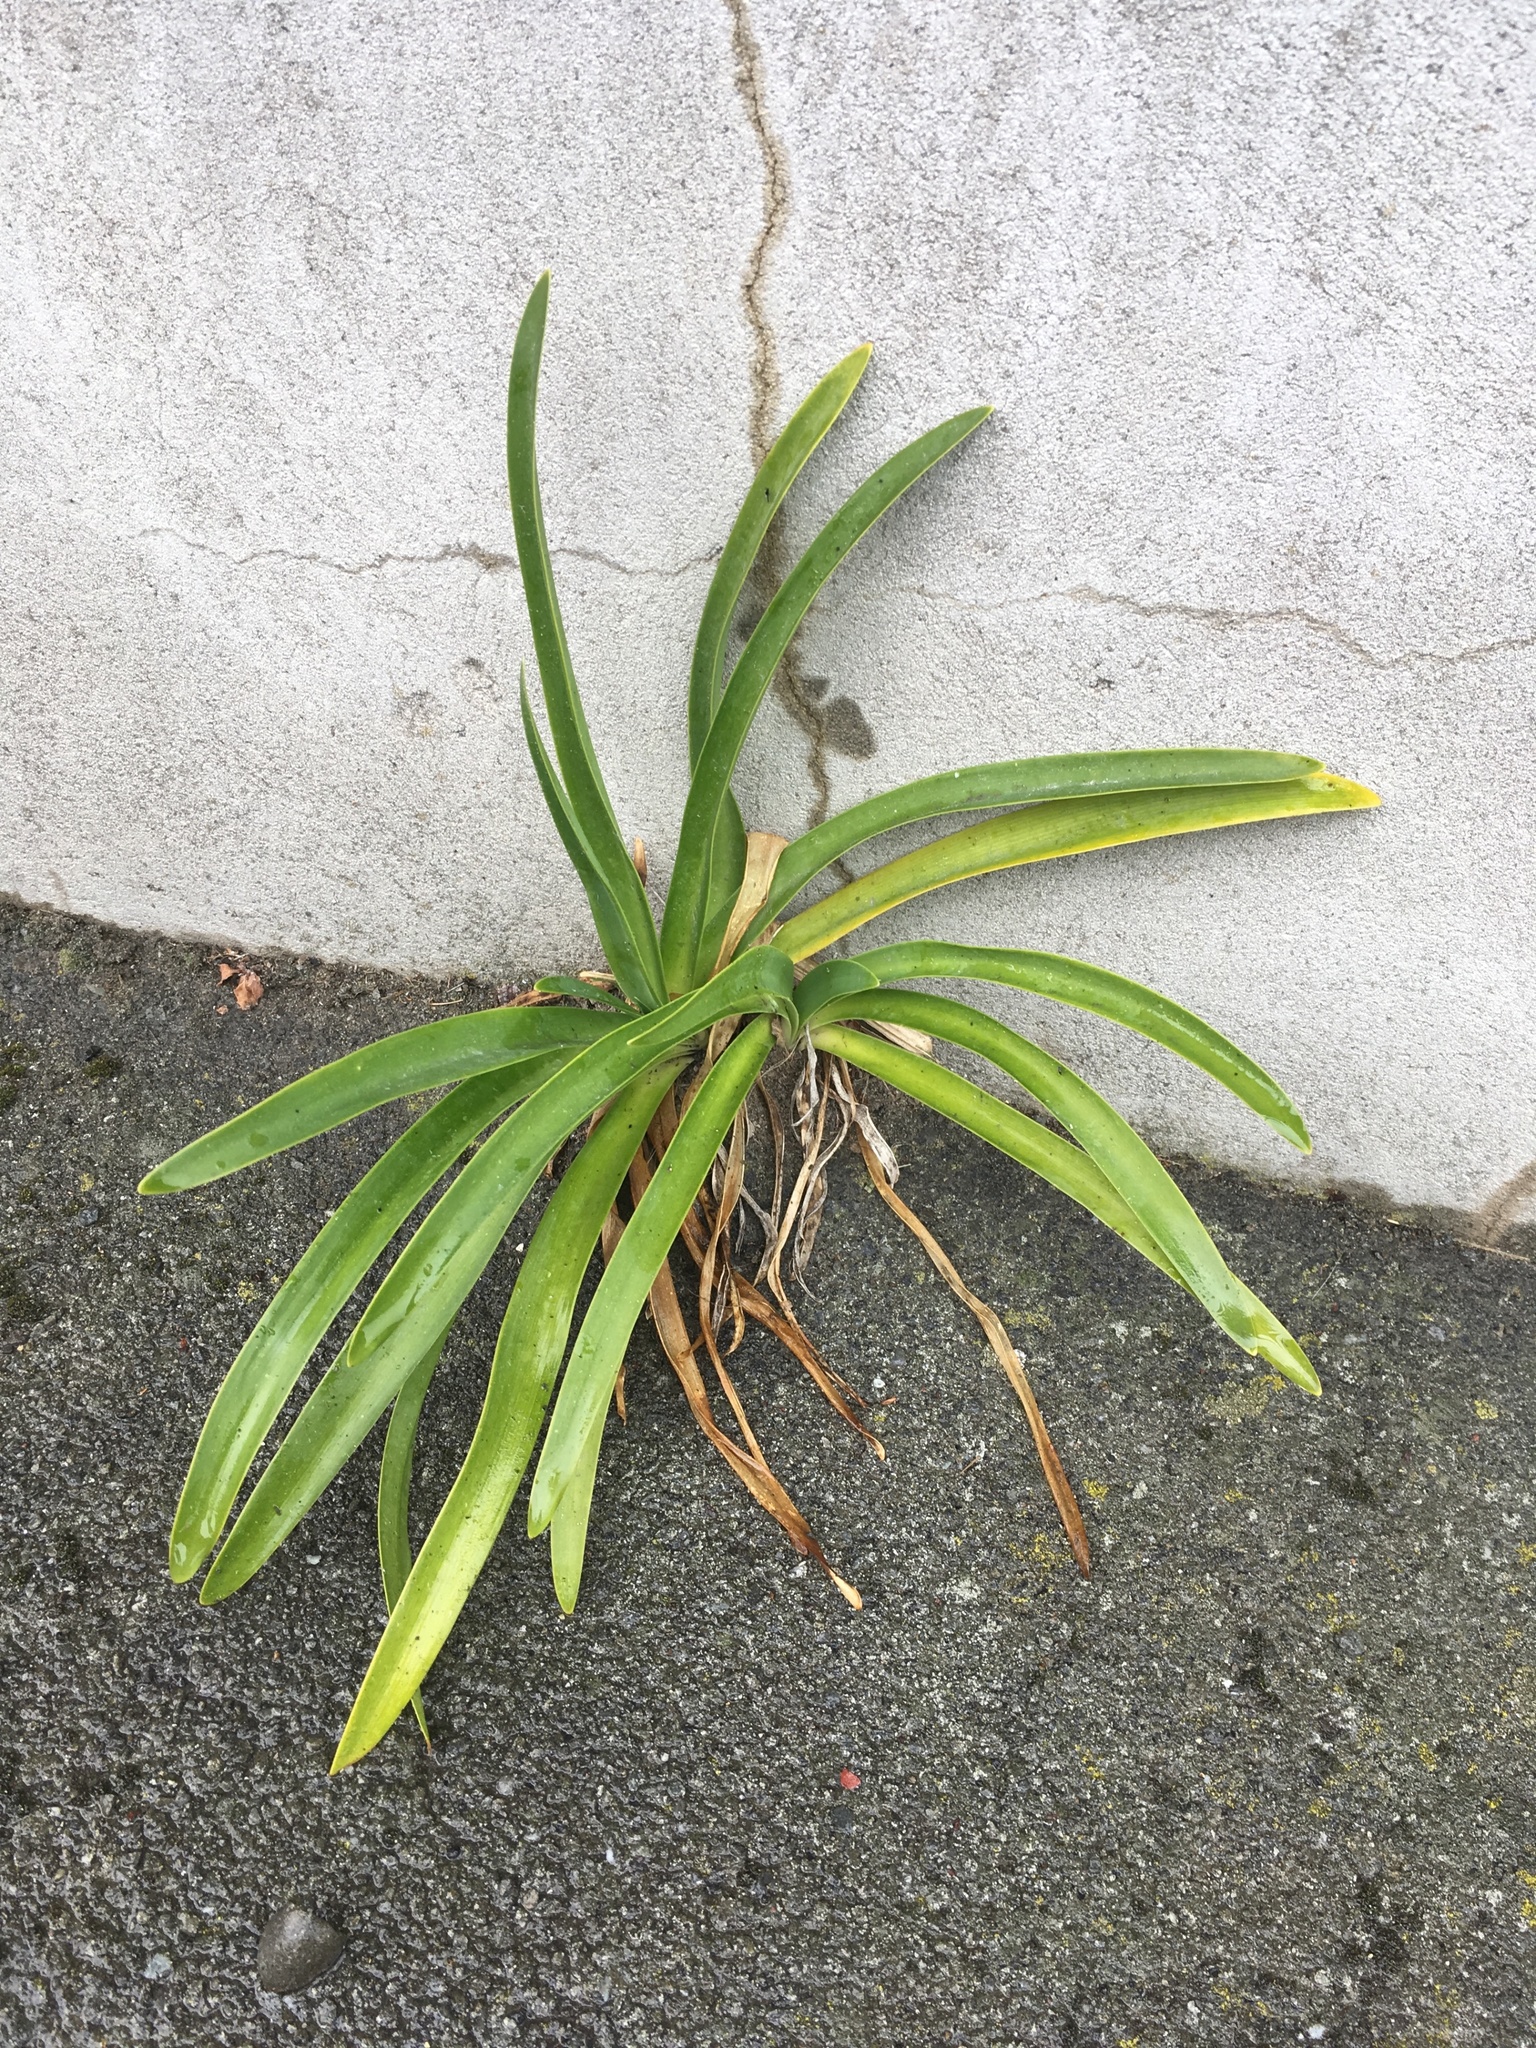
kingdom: Plantae
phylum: Tracheophyta
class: Liliopsida
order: Asparagales
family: Amaryllidaceae
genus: Agapanthus
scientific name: Agapanthus praecox
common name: African-lily
